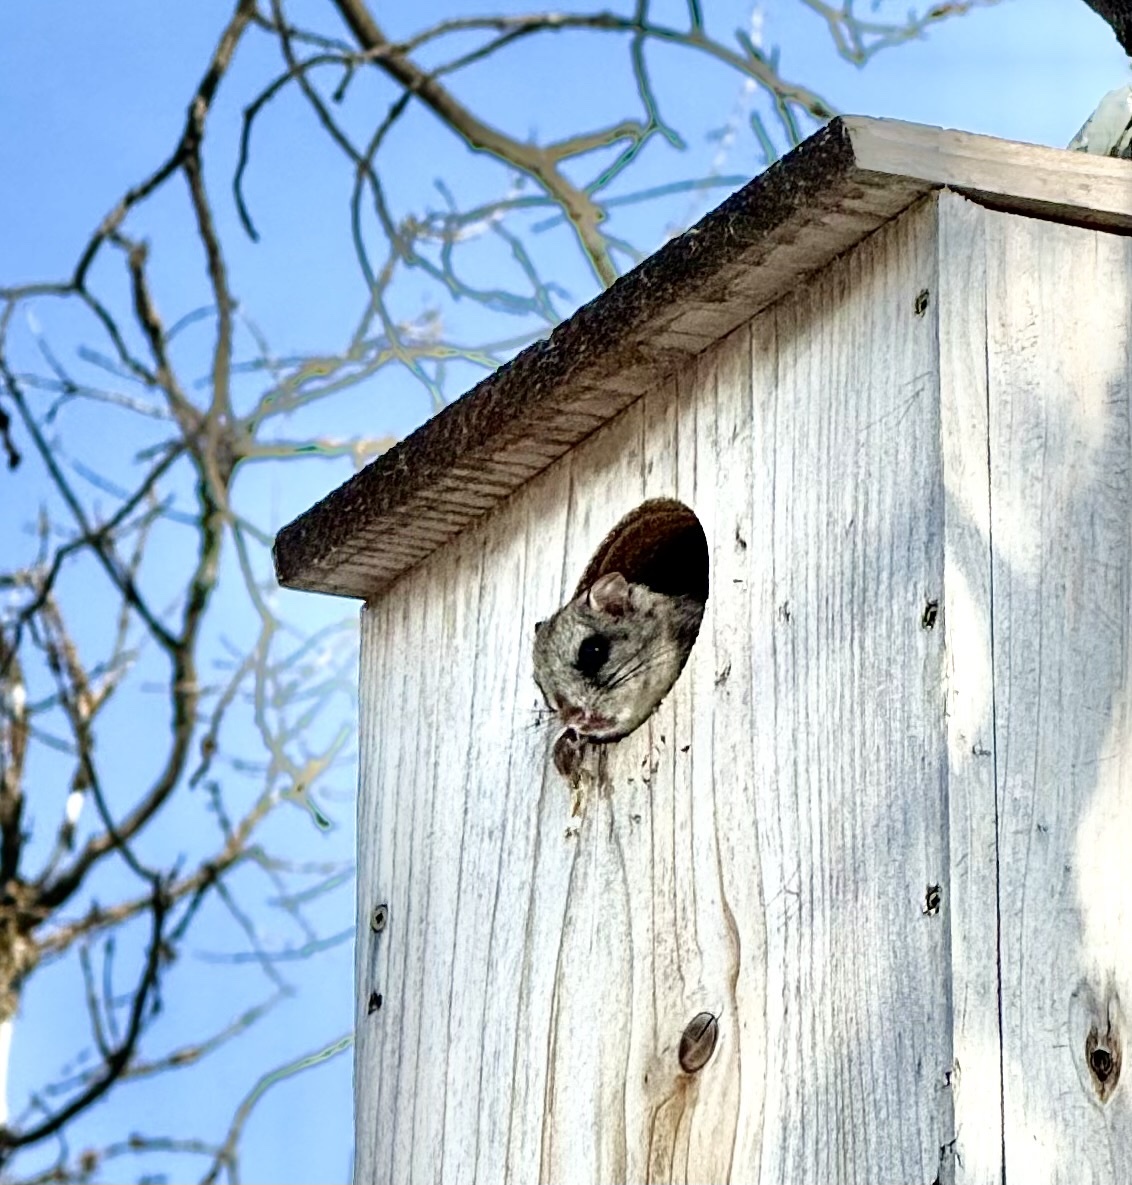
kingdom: Animalia
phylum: Chordata
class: Mammalia
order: Rodentia
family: Sciuridae
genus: Glaucomys
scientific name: Glaucomys sabrinus
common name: Northern flying squirrel
